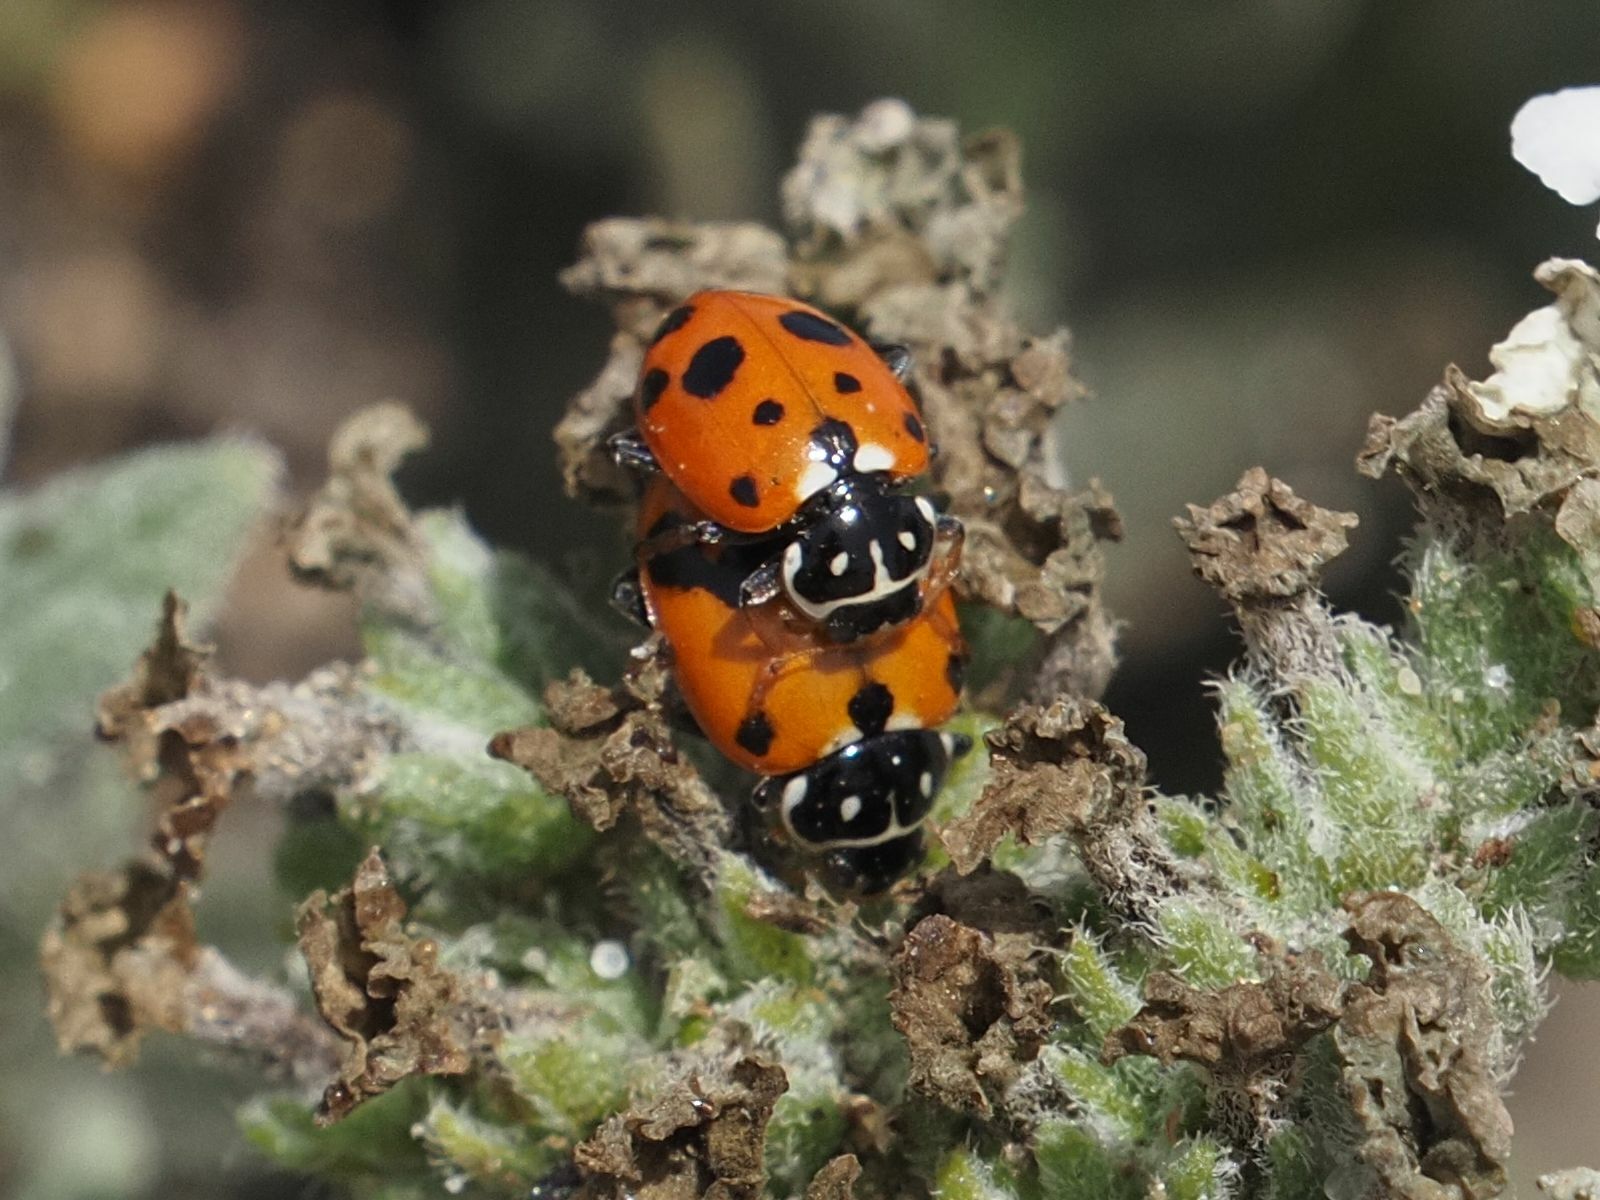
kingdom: Animalia
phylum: Arthropoda
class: Insecta
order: Coleoptera
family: Coccinellidae
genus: Hippodamia
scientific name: Hippodamia variegata
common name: Ladybird beetle
